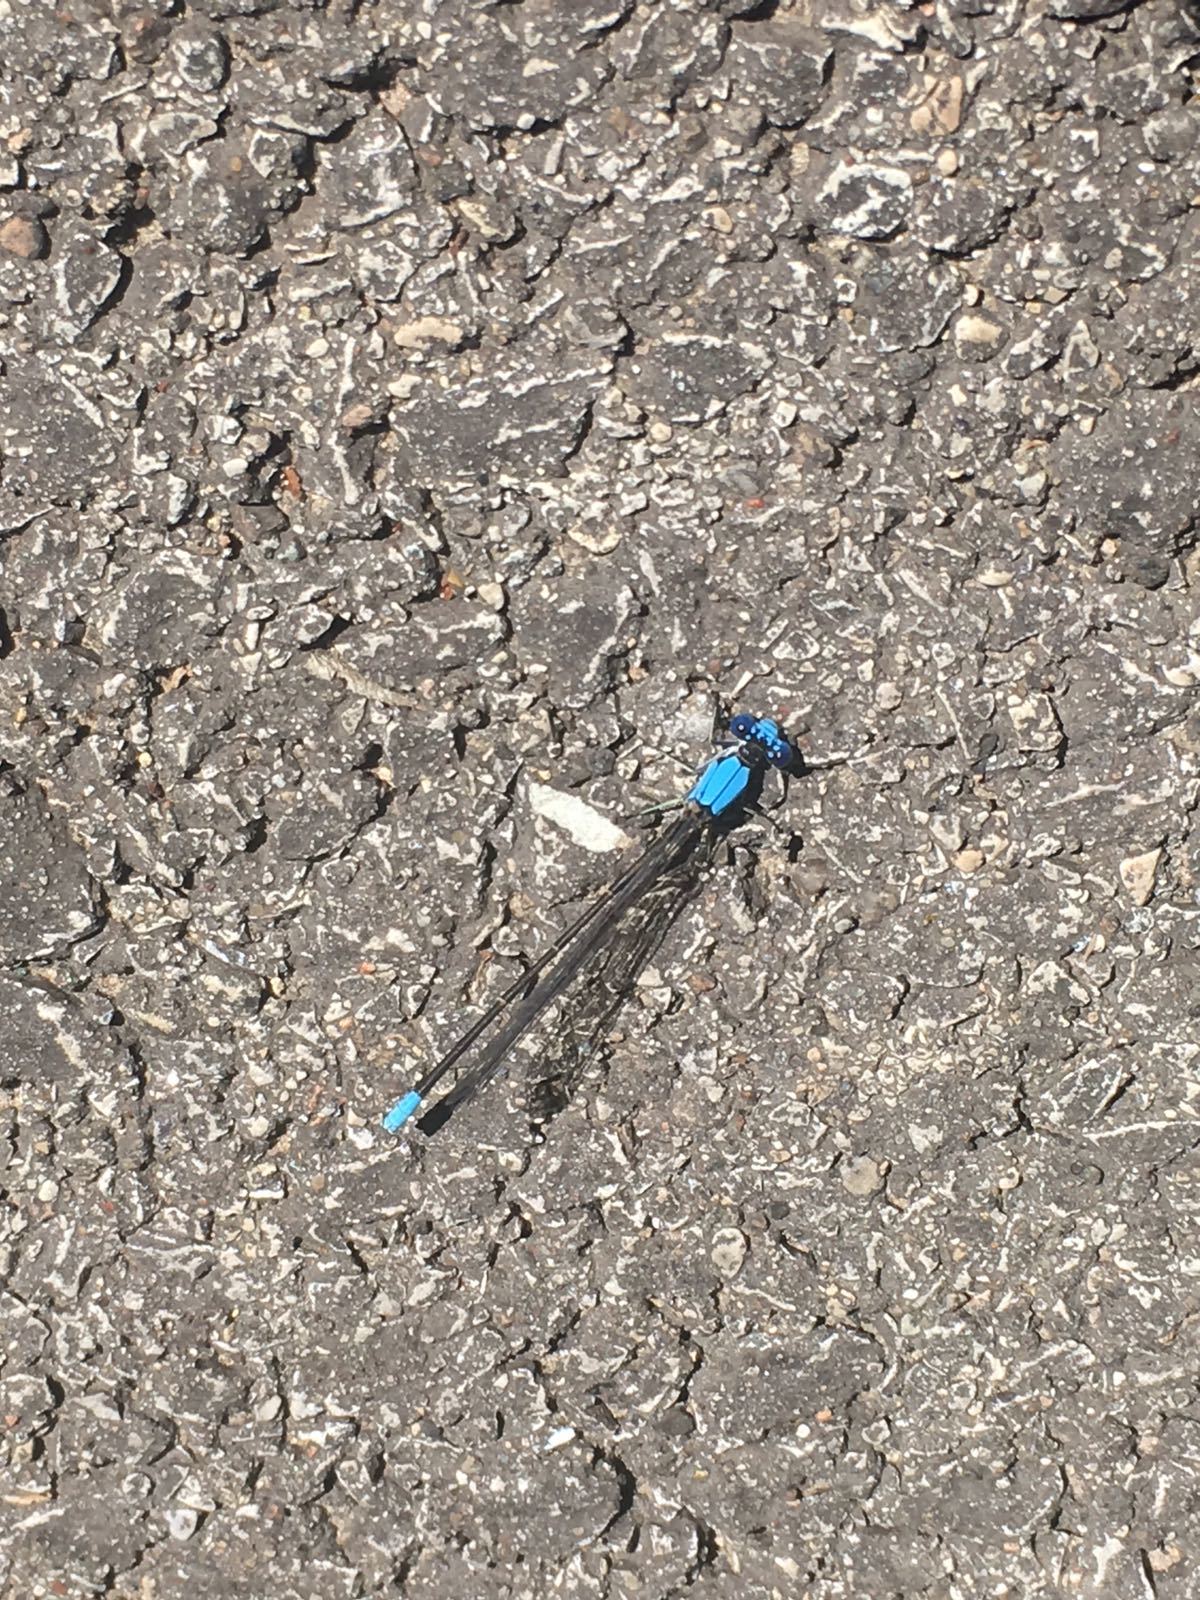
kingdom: Animalia
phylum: Arthropoda
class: Insecta
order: Odonata
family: Coenagrionidae
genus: Argia
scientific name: Argia apicalis
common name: Blue-fronted dancer
